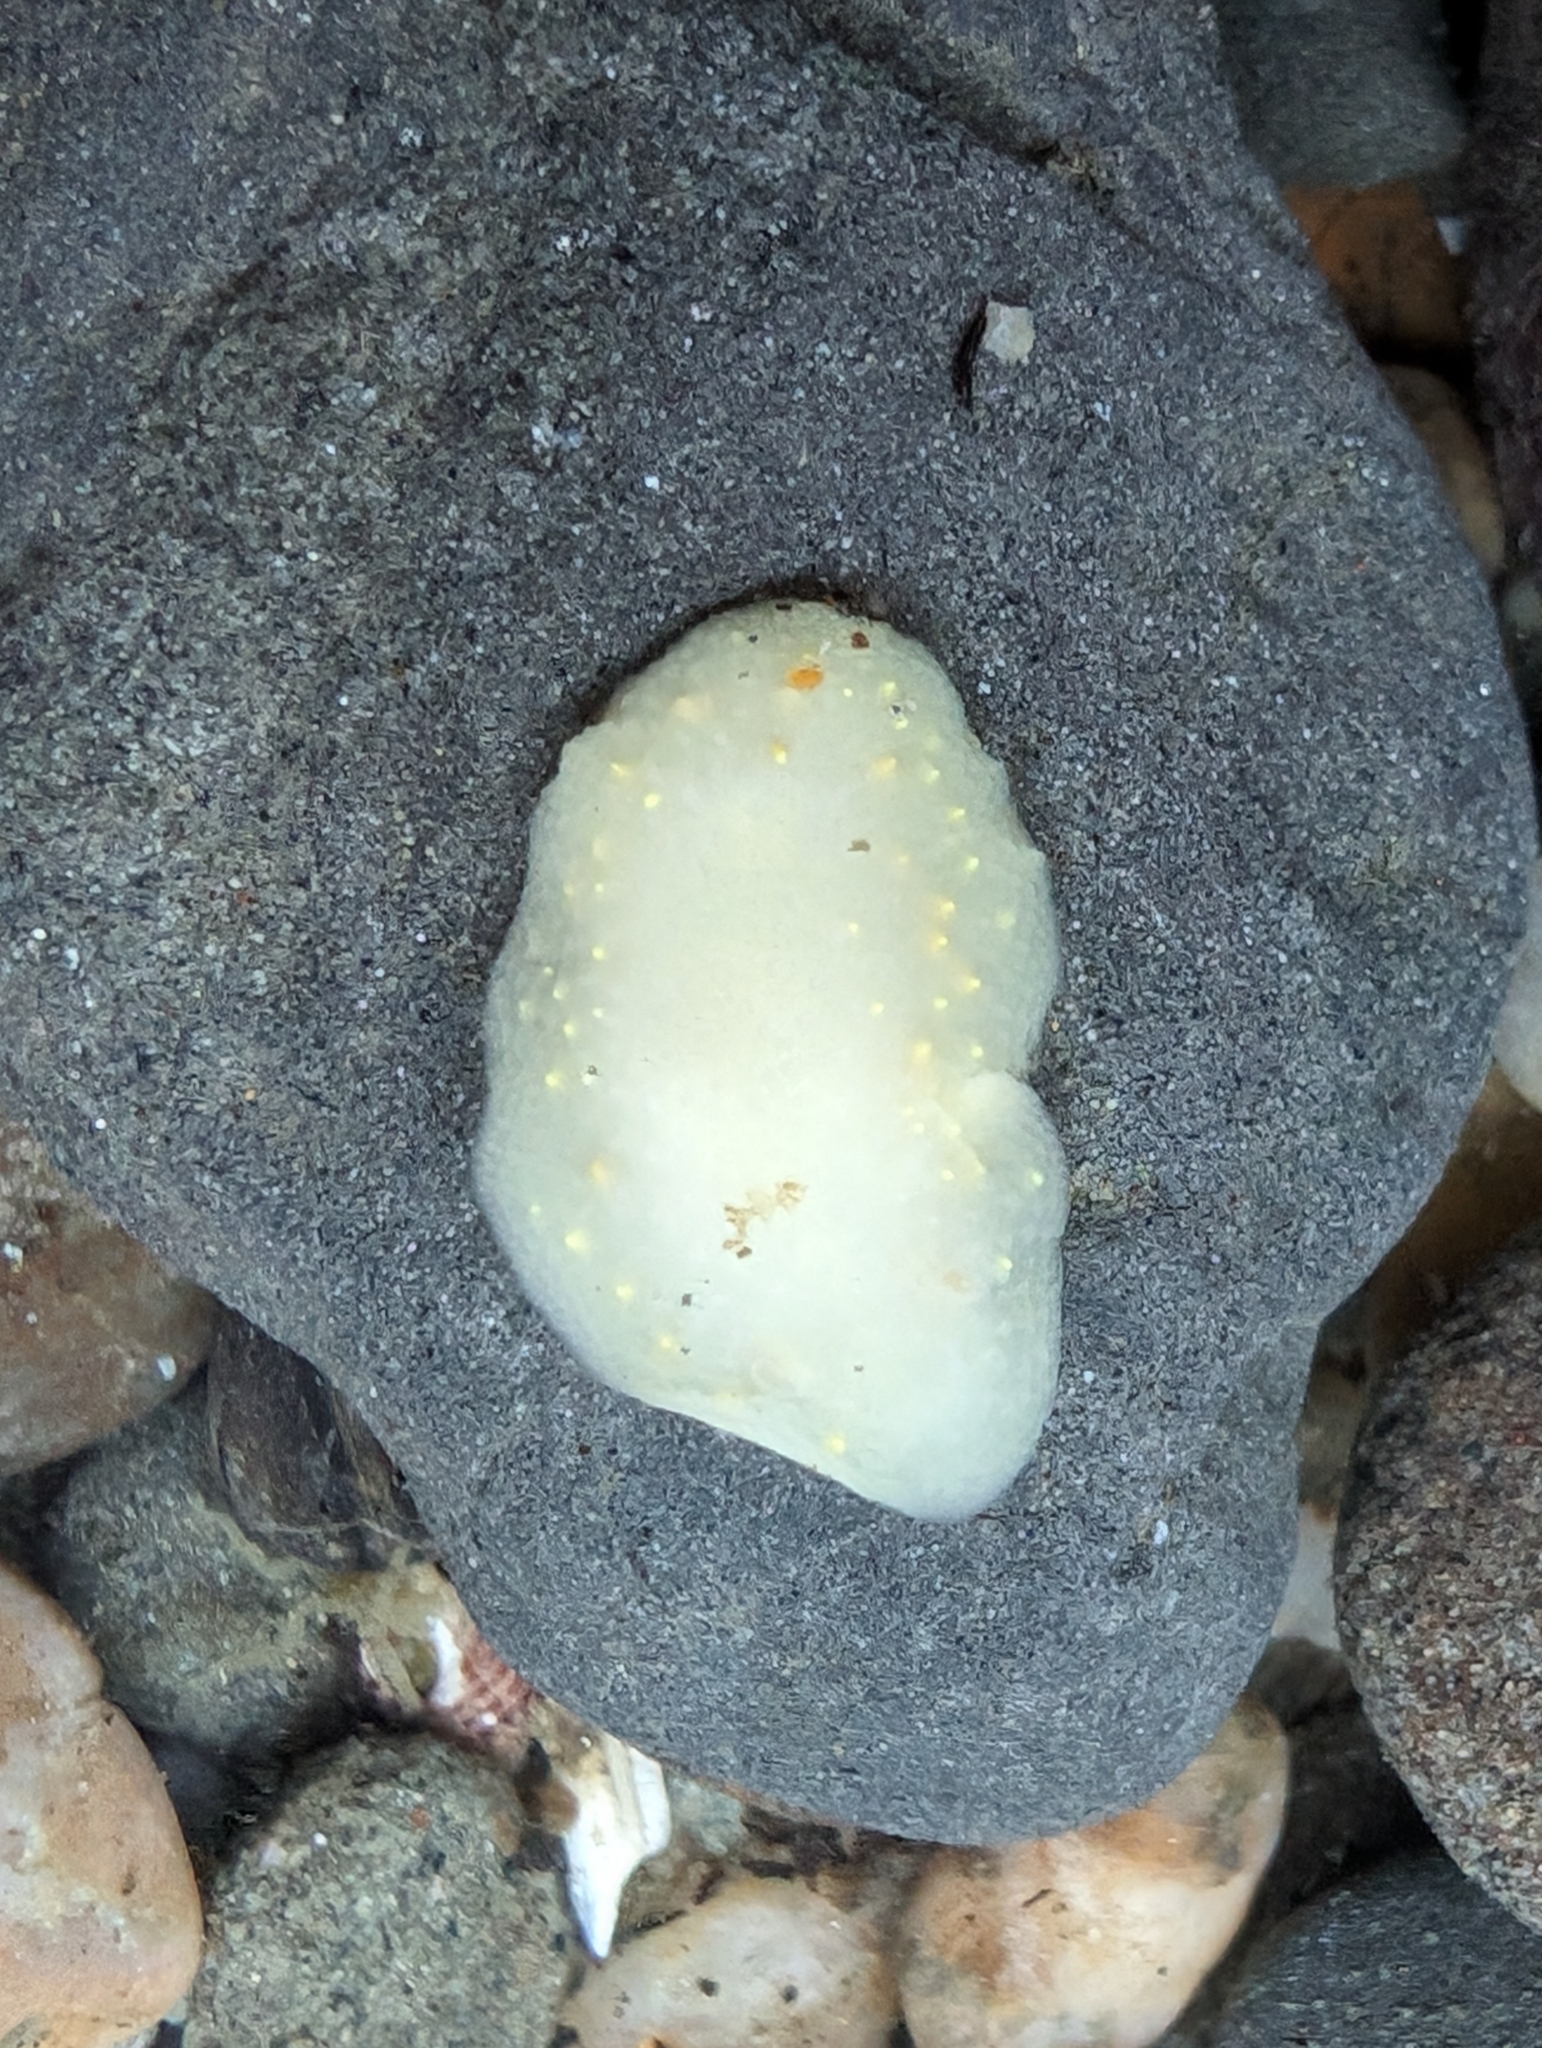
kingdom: Animalia
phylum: Mollusca
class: Gastropoda
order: Nudibranchia
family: Cadlinidae
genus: Cadlina
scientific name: Cadlina modesta
